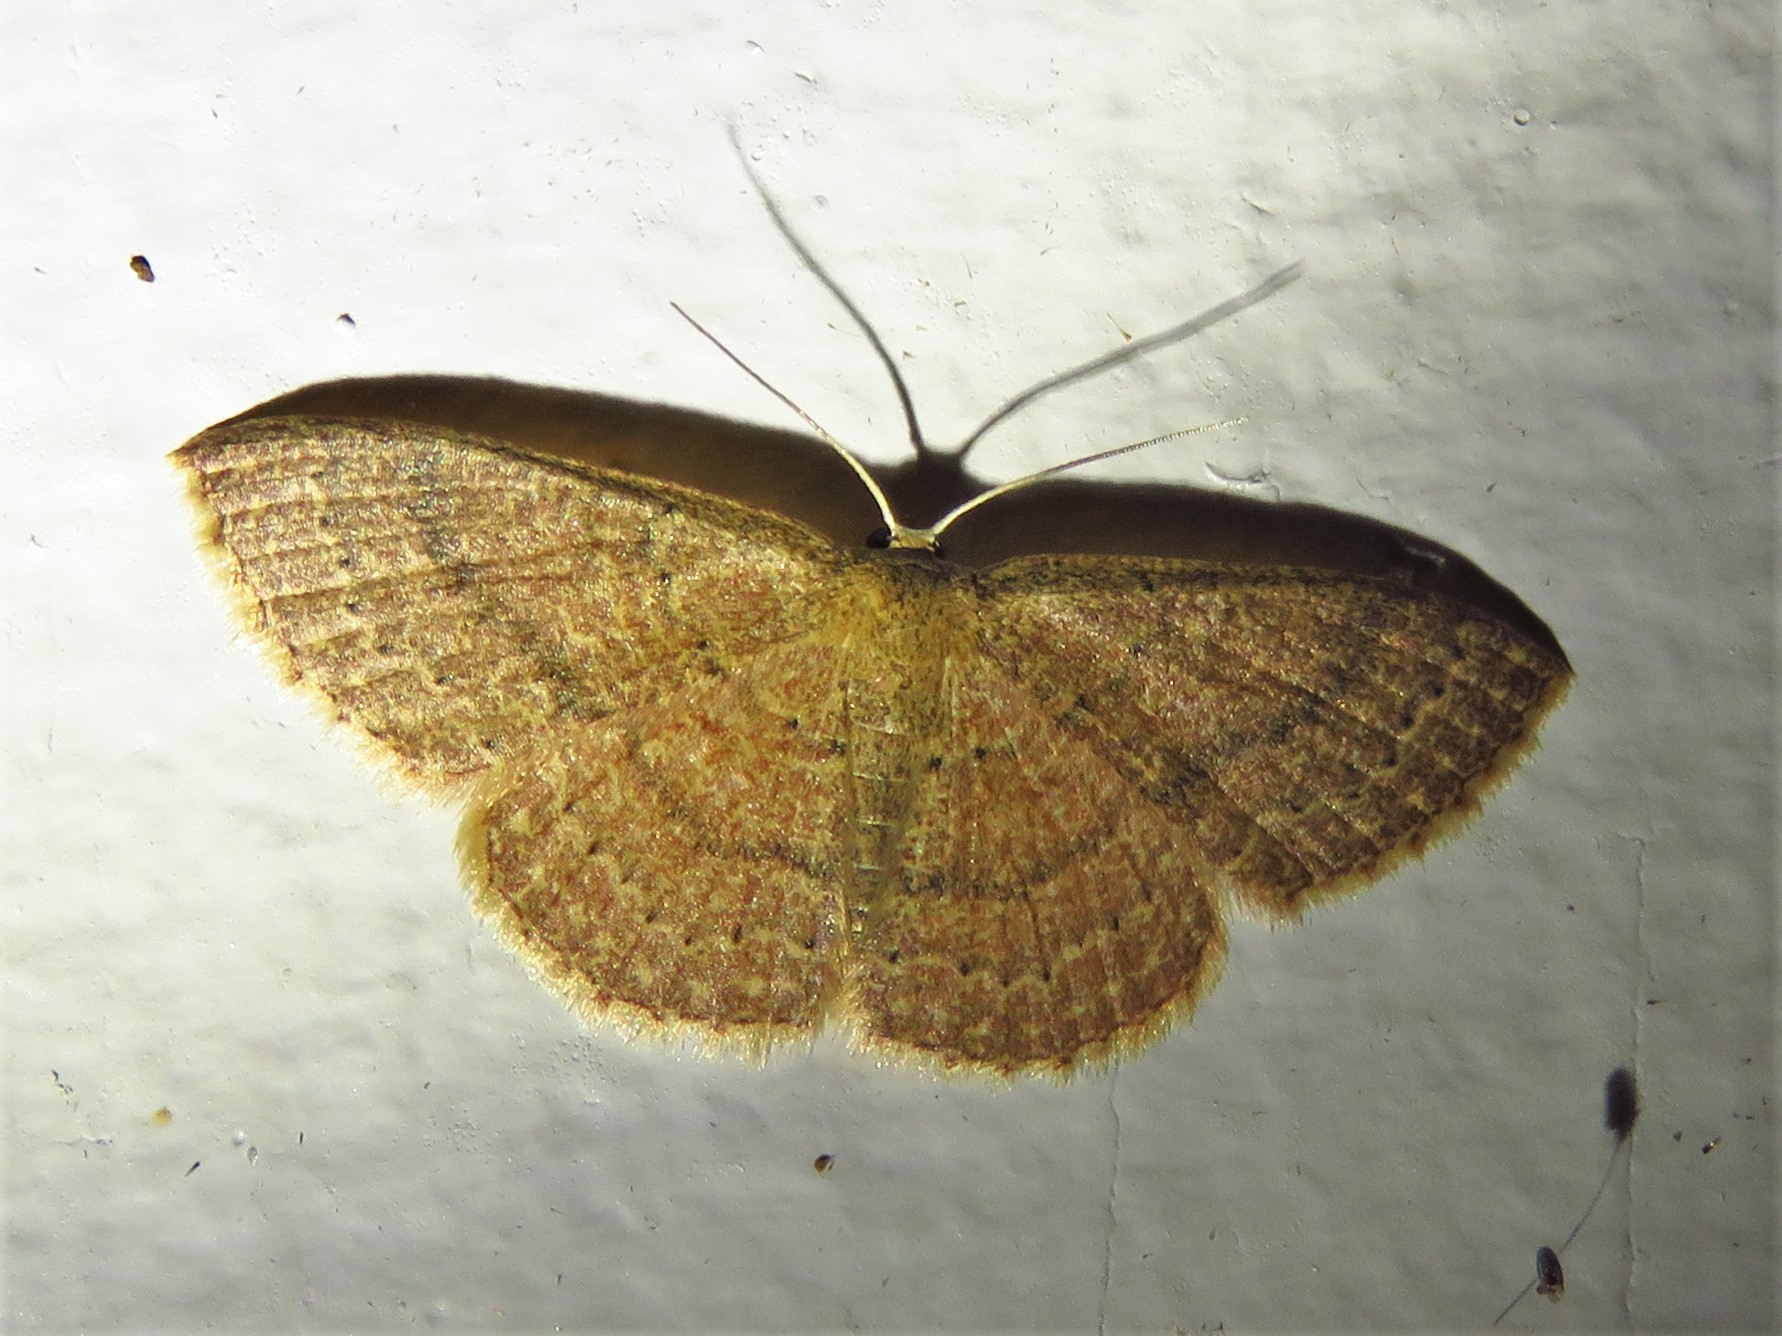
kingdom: Animalia
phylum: Arthropoda
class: Insecta
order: Lepidoptera
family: Geometridae
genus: Pleuroprucha
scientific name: Pleuroprucha insulsaria
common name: Common tan wave
